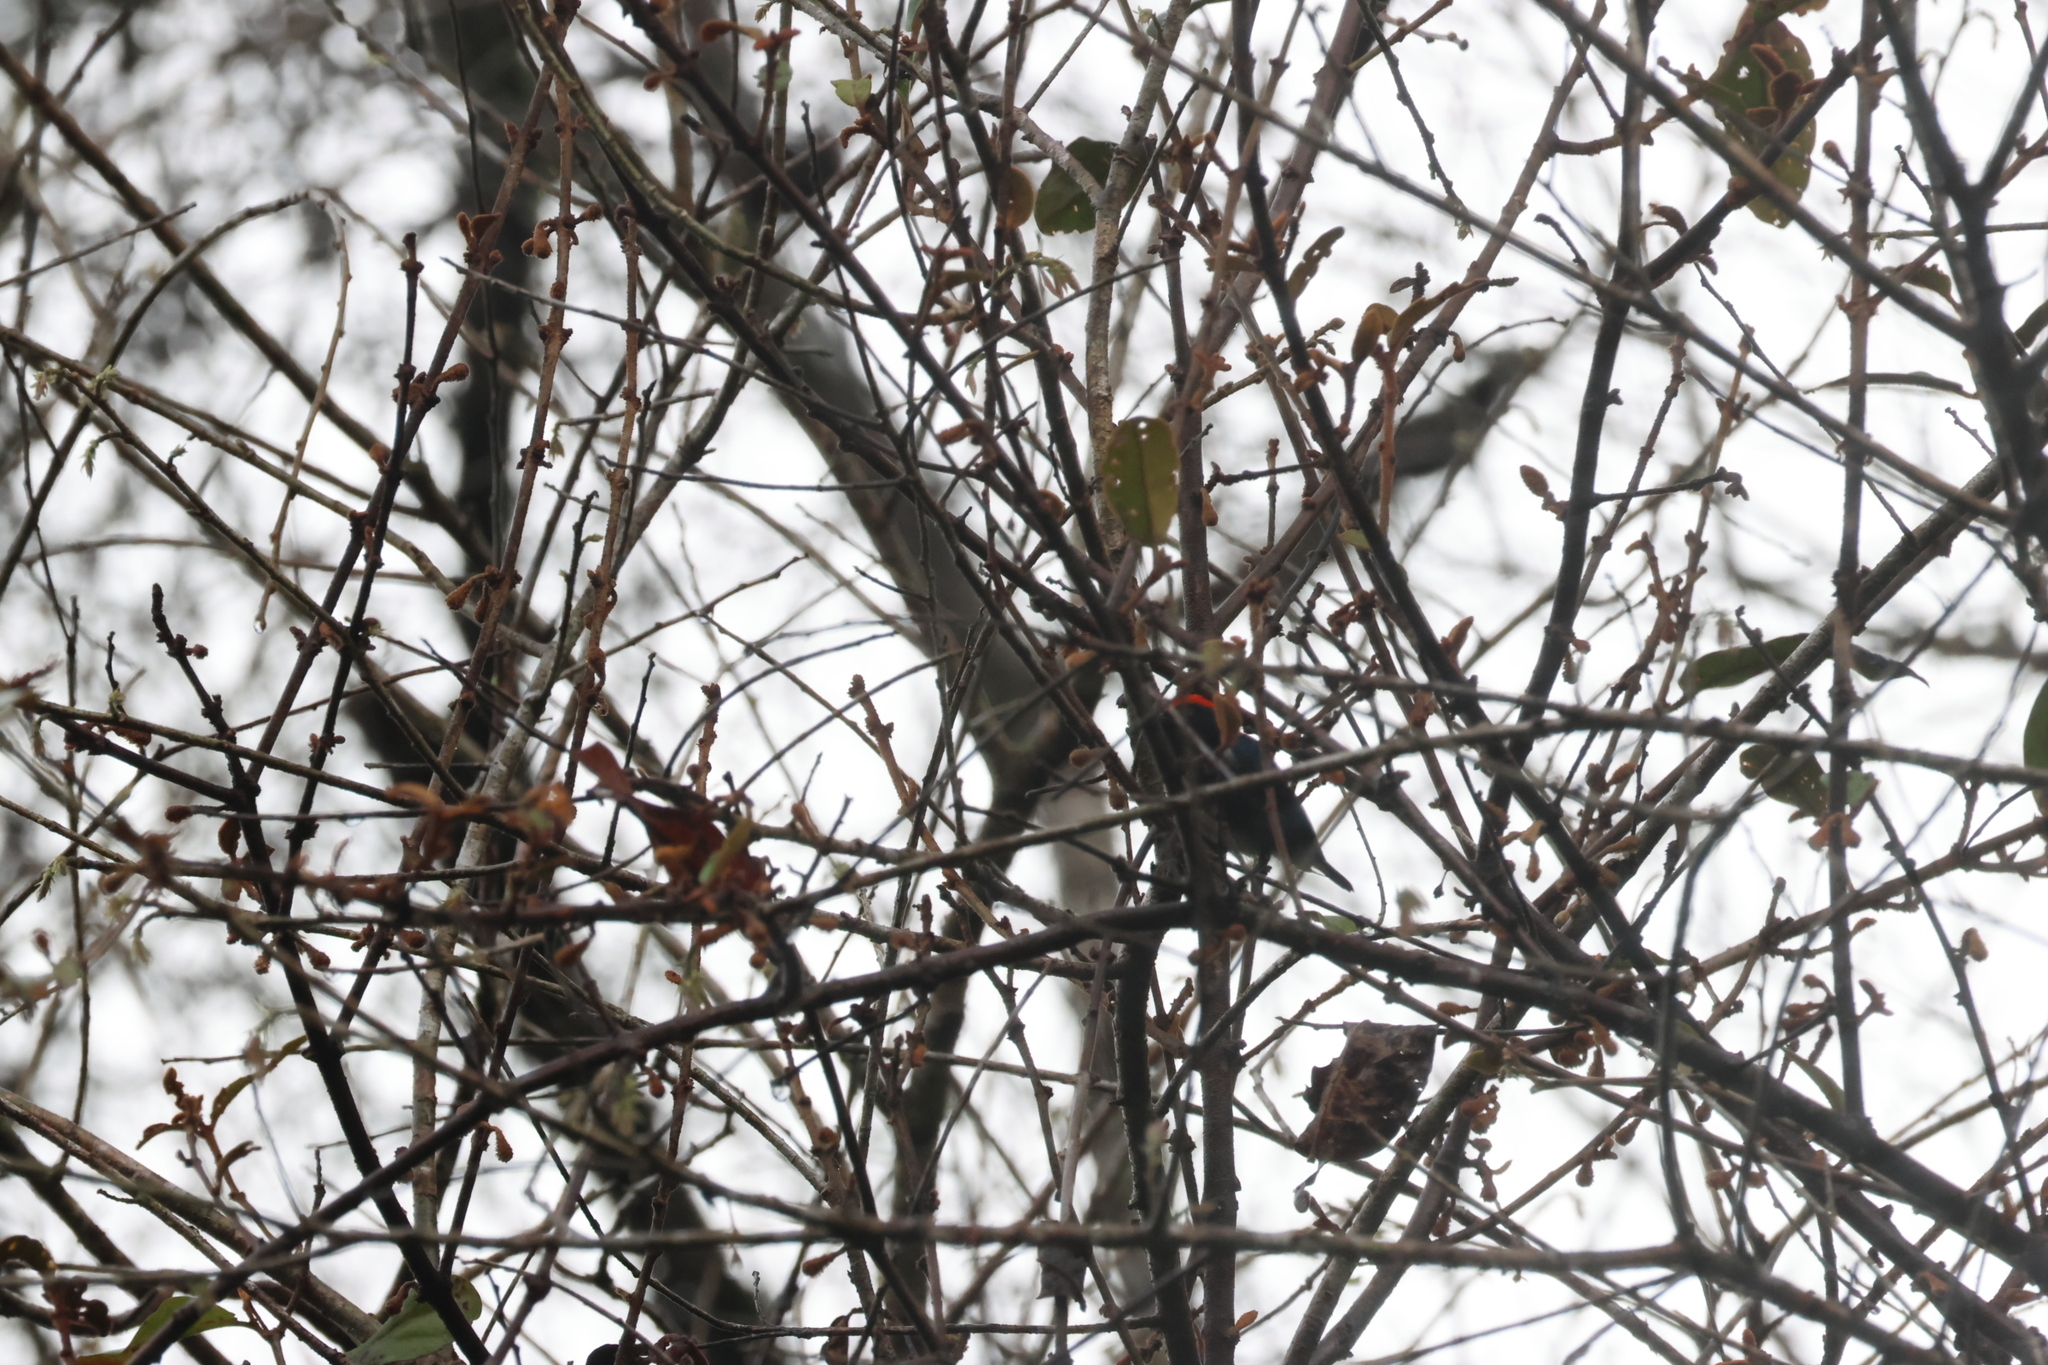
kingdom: Animalia
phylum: Chordata
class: Aves
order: Passeriformes
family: Dicaeidae
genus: Dicaeum
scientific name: Dicaeum cruentatum
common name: Scarlet-backed flowerpecker
